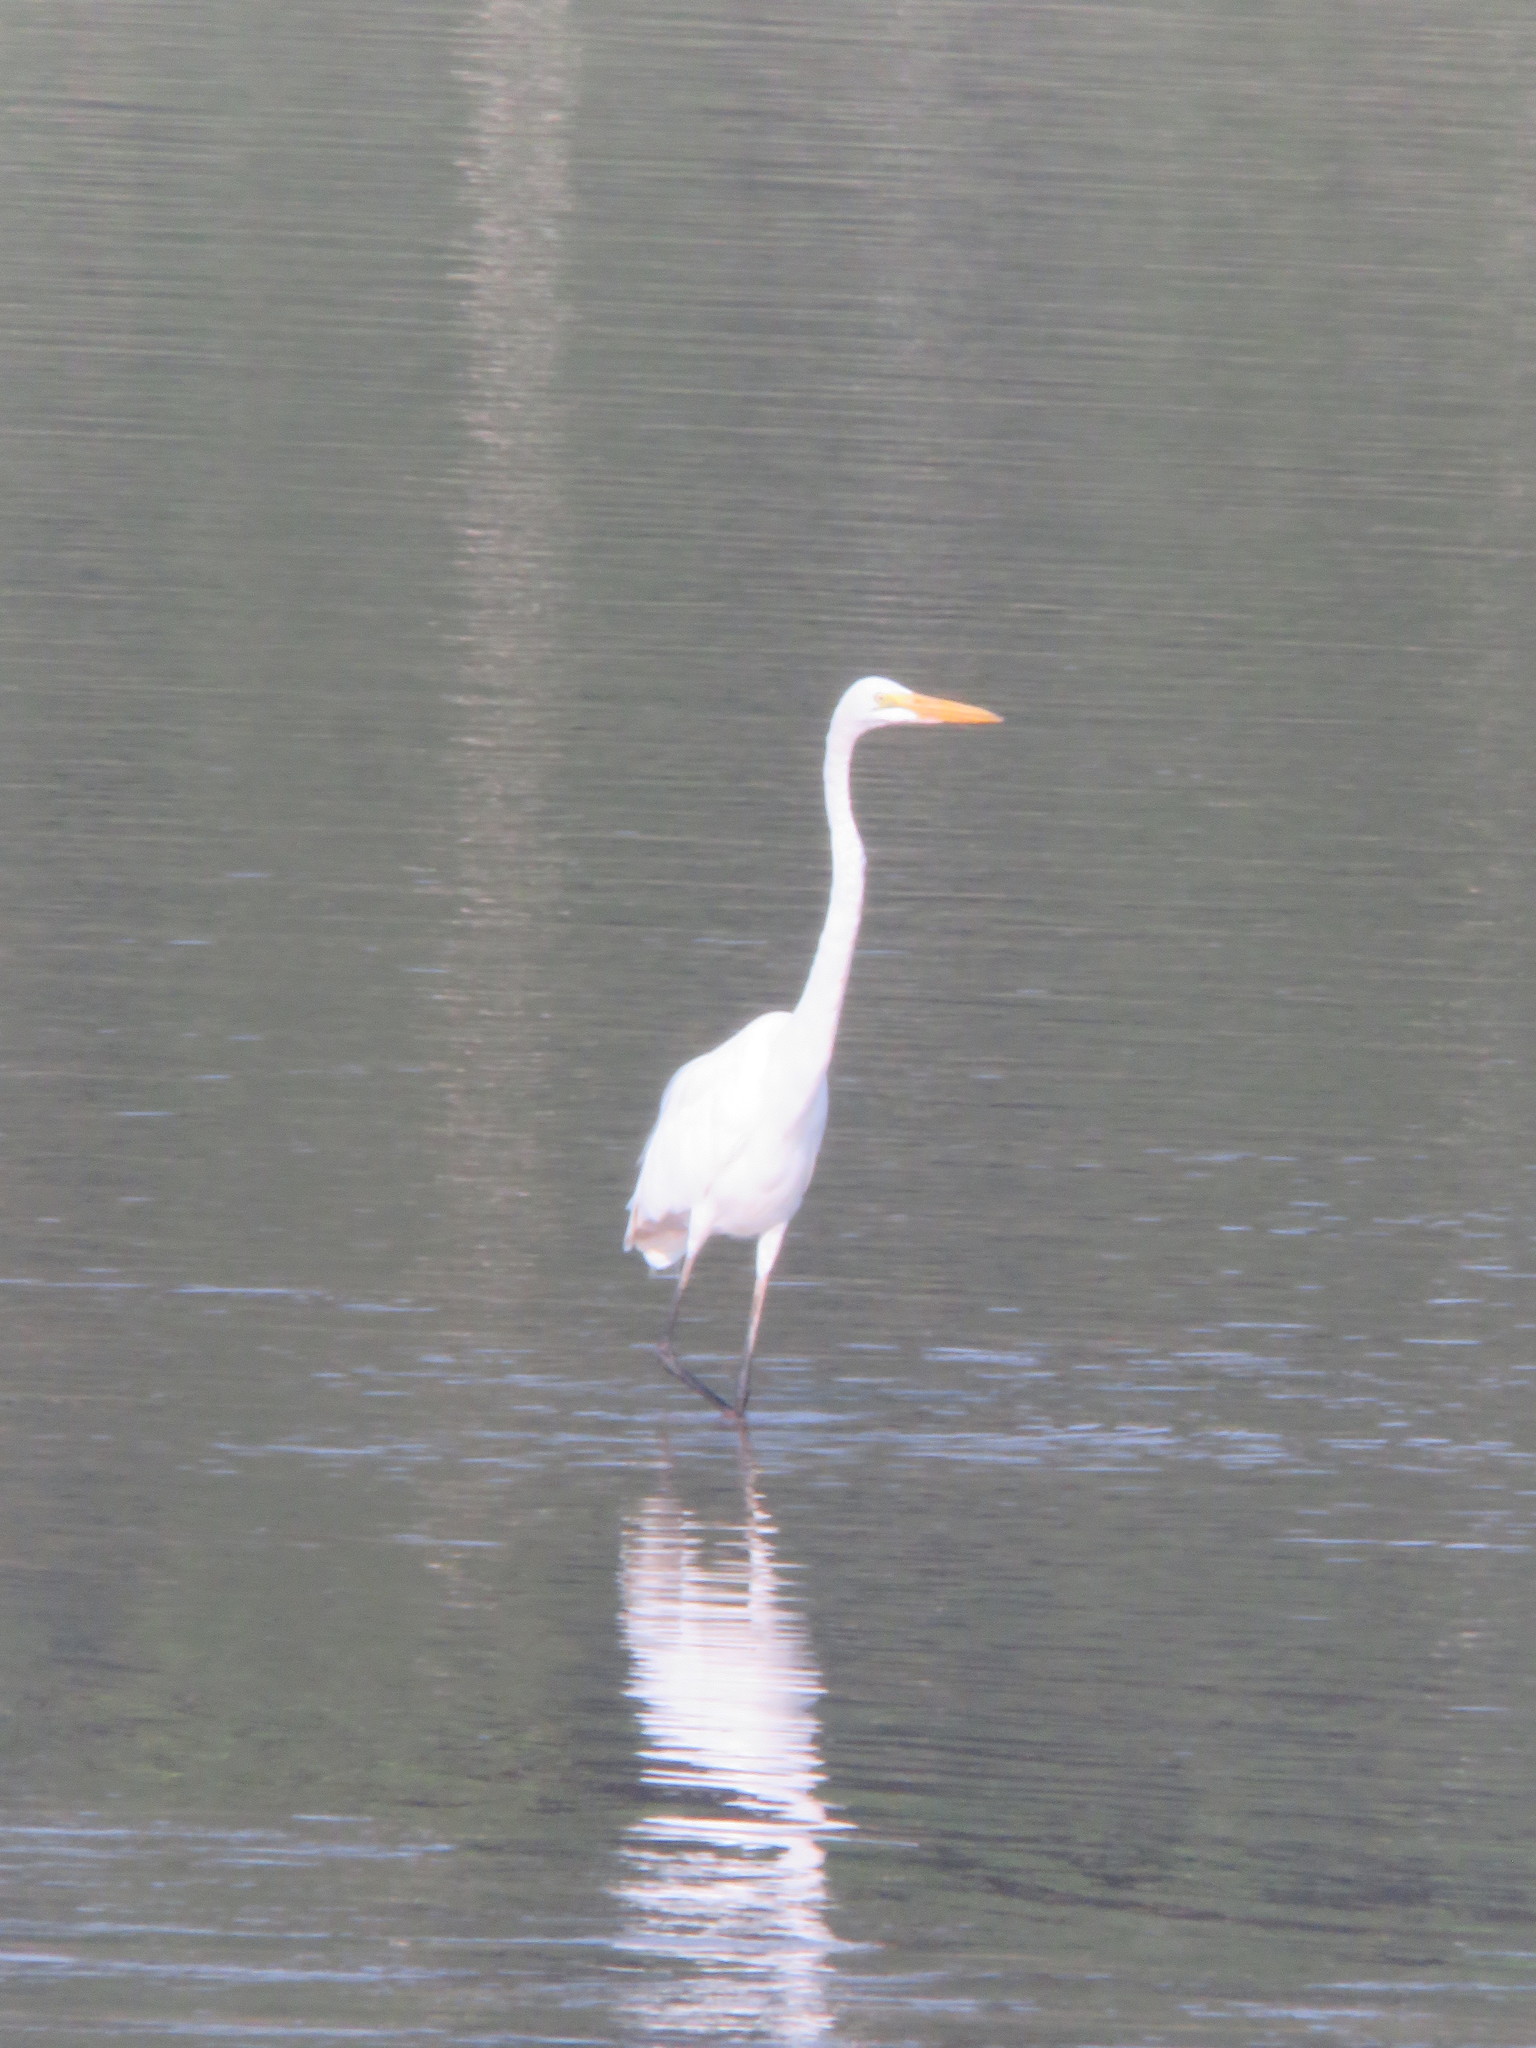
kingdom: Animalia
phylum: Chordata
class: Aves
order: Pelecaniformes
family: Ardeidae
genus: Ardea
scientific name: Ardea alba
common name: Great egret
